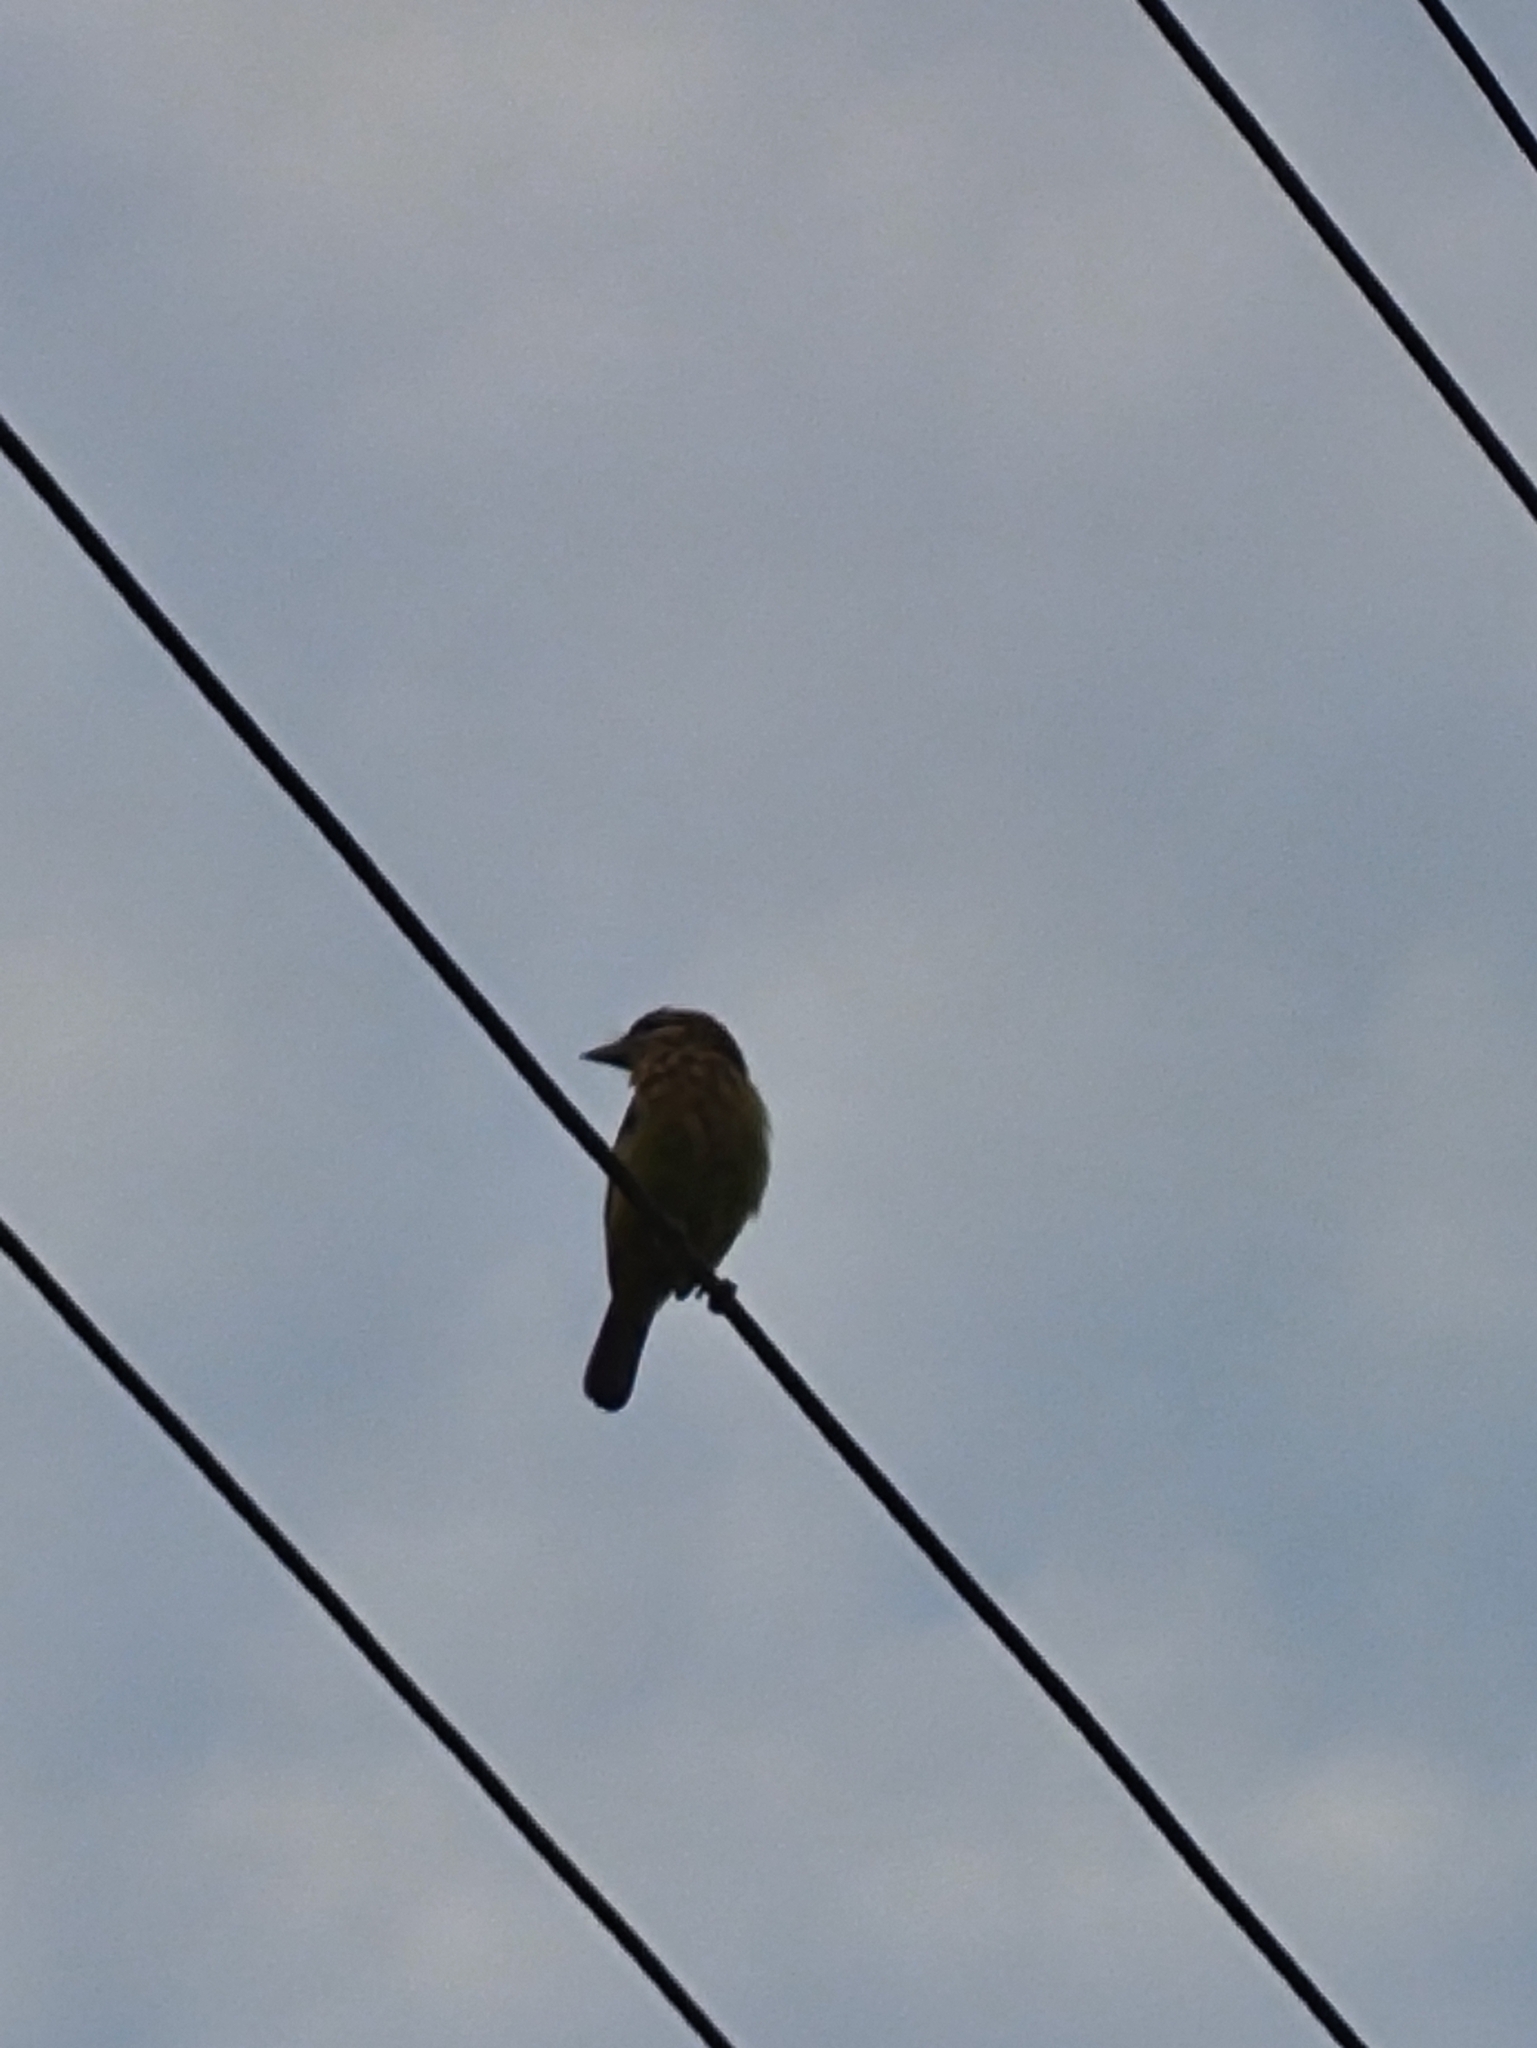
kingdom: Animalia
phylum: Chordata
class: Aves
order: Piciformes
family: Megalaimidae
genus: Psilopogon
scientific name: Psilopogon viridis
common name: White-cheeked barbet
